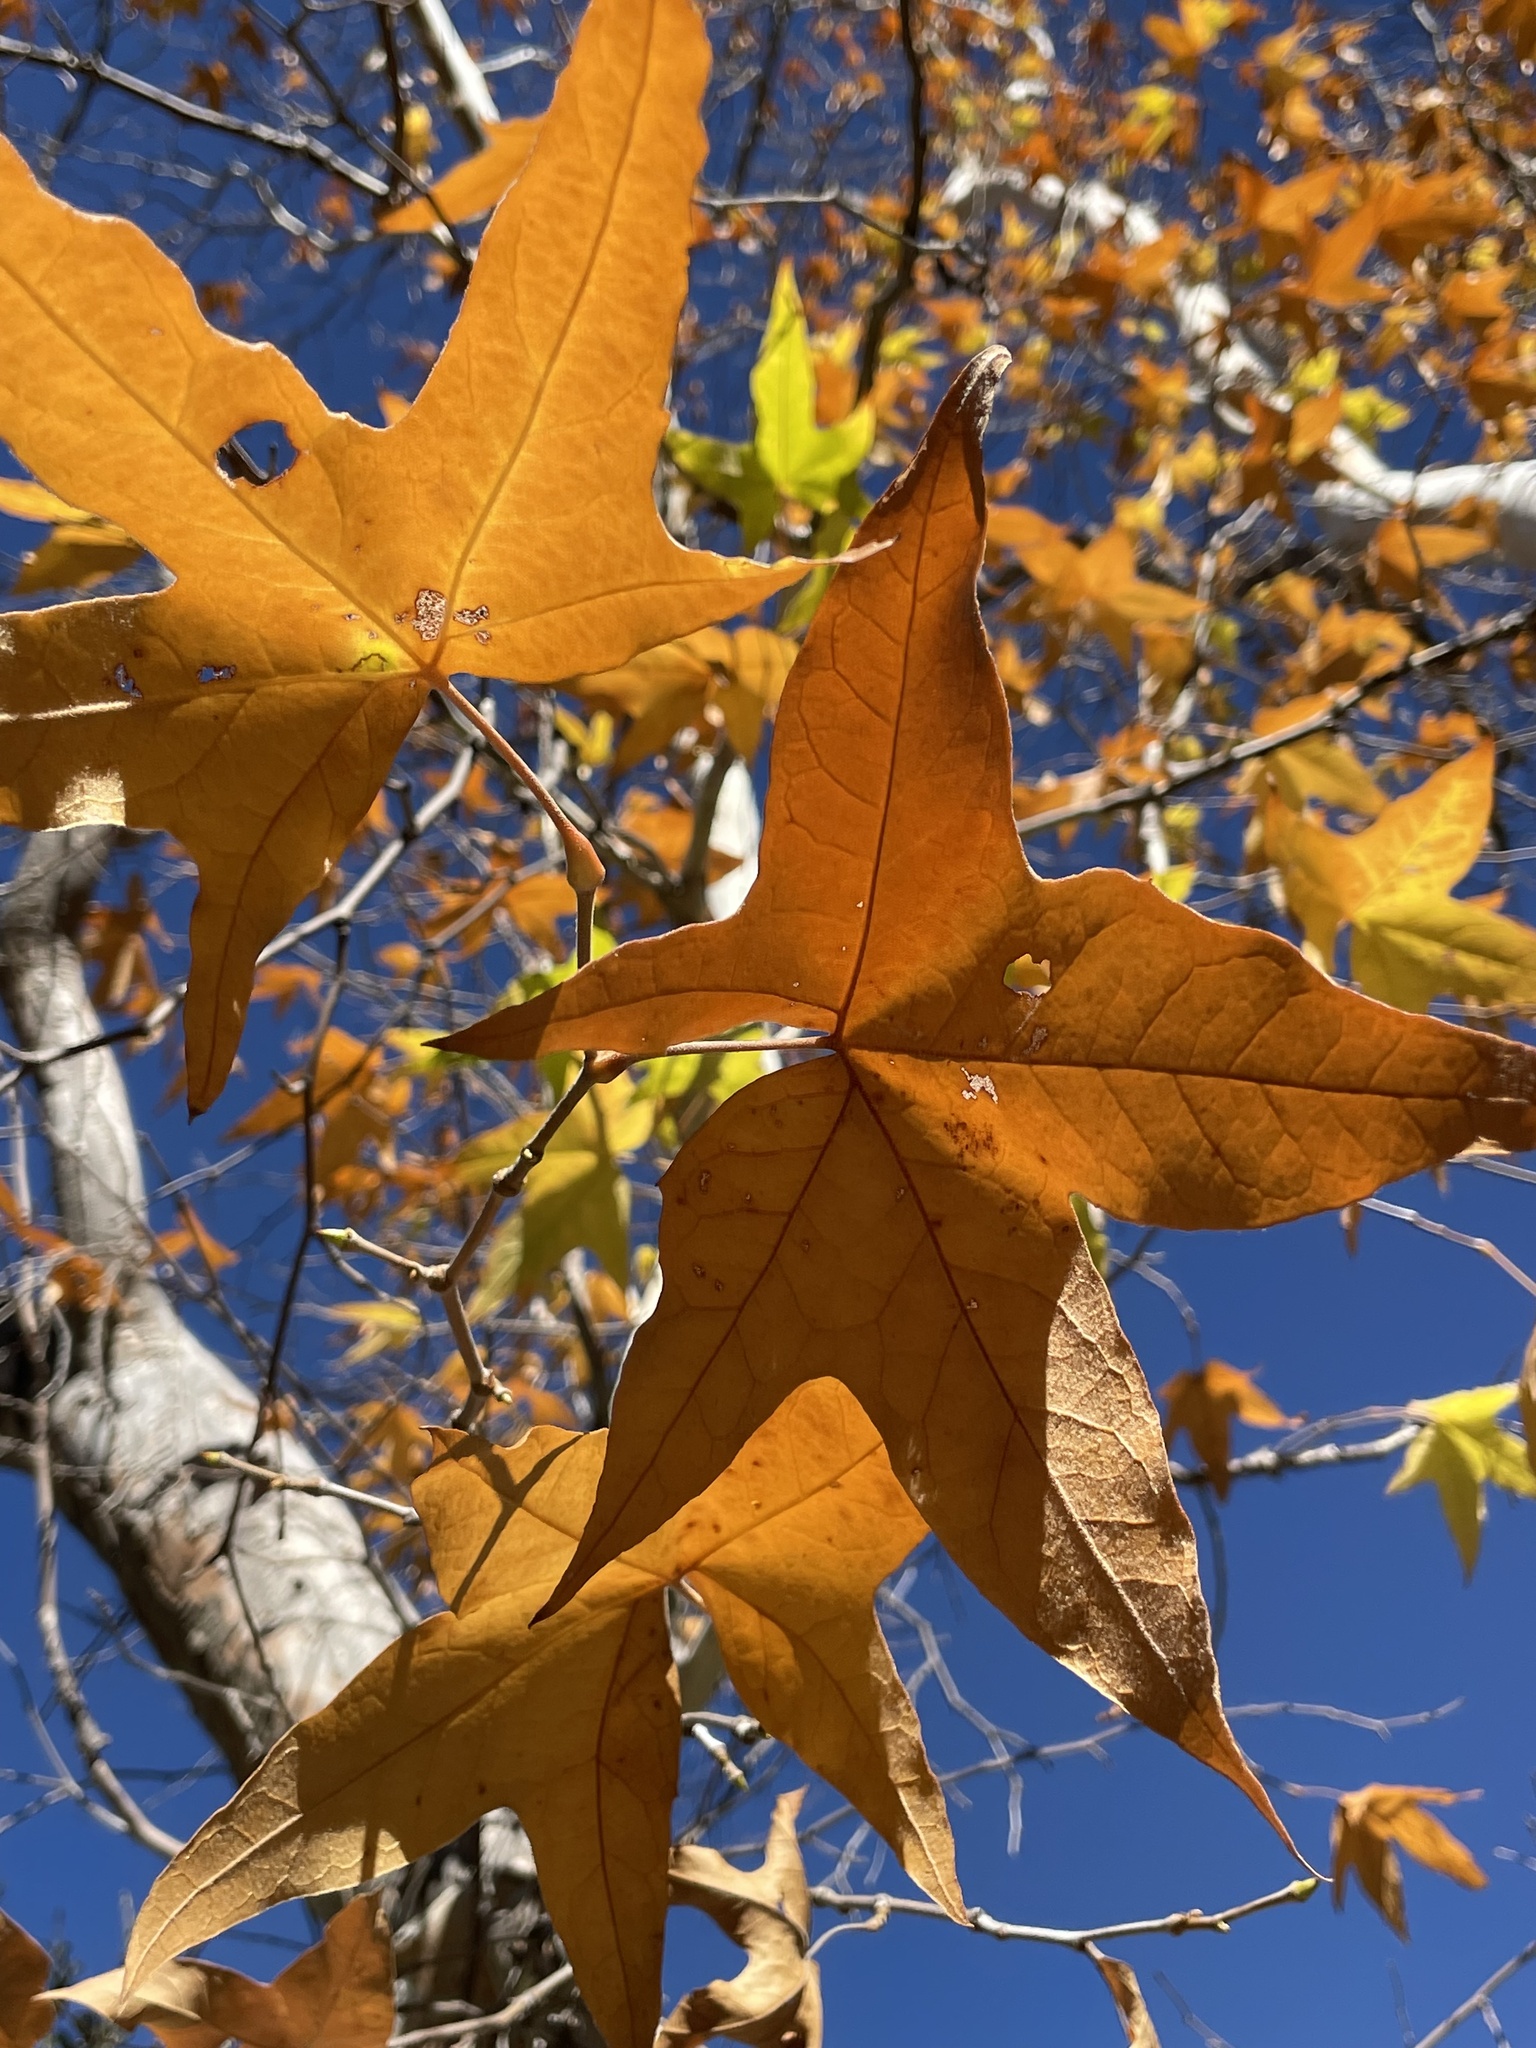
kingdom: Plantae
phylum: Tracheophyta
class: Magnoliopsida
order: Proteales
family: Platanaceae
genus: Platanus
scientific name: Platanus wrightii
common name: Arizona sycamore
